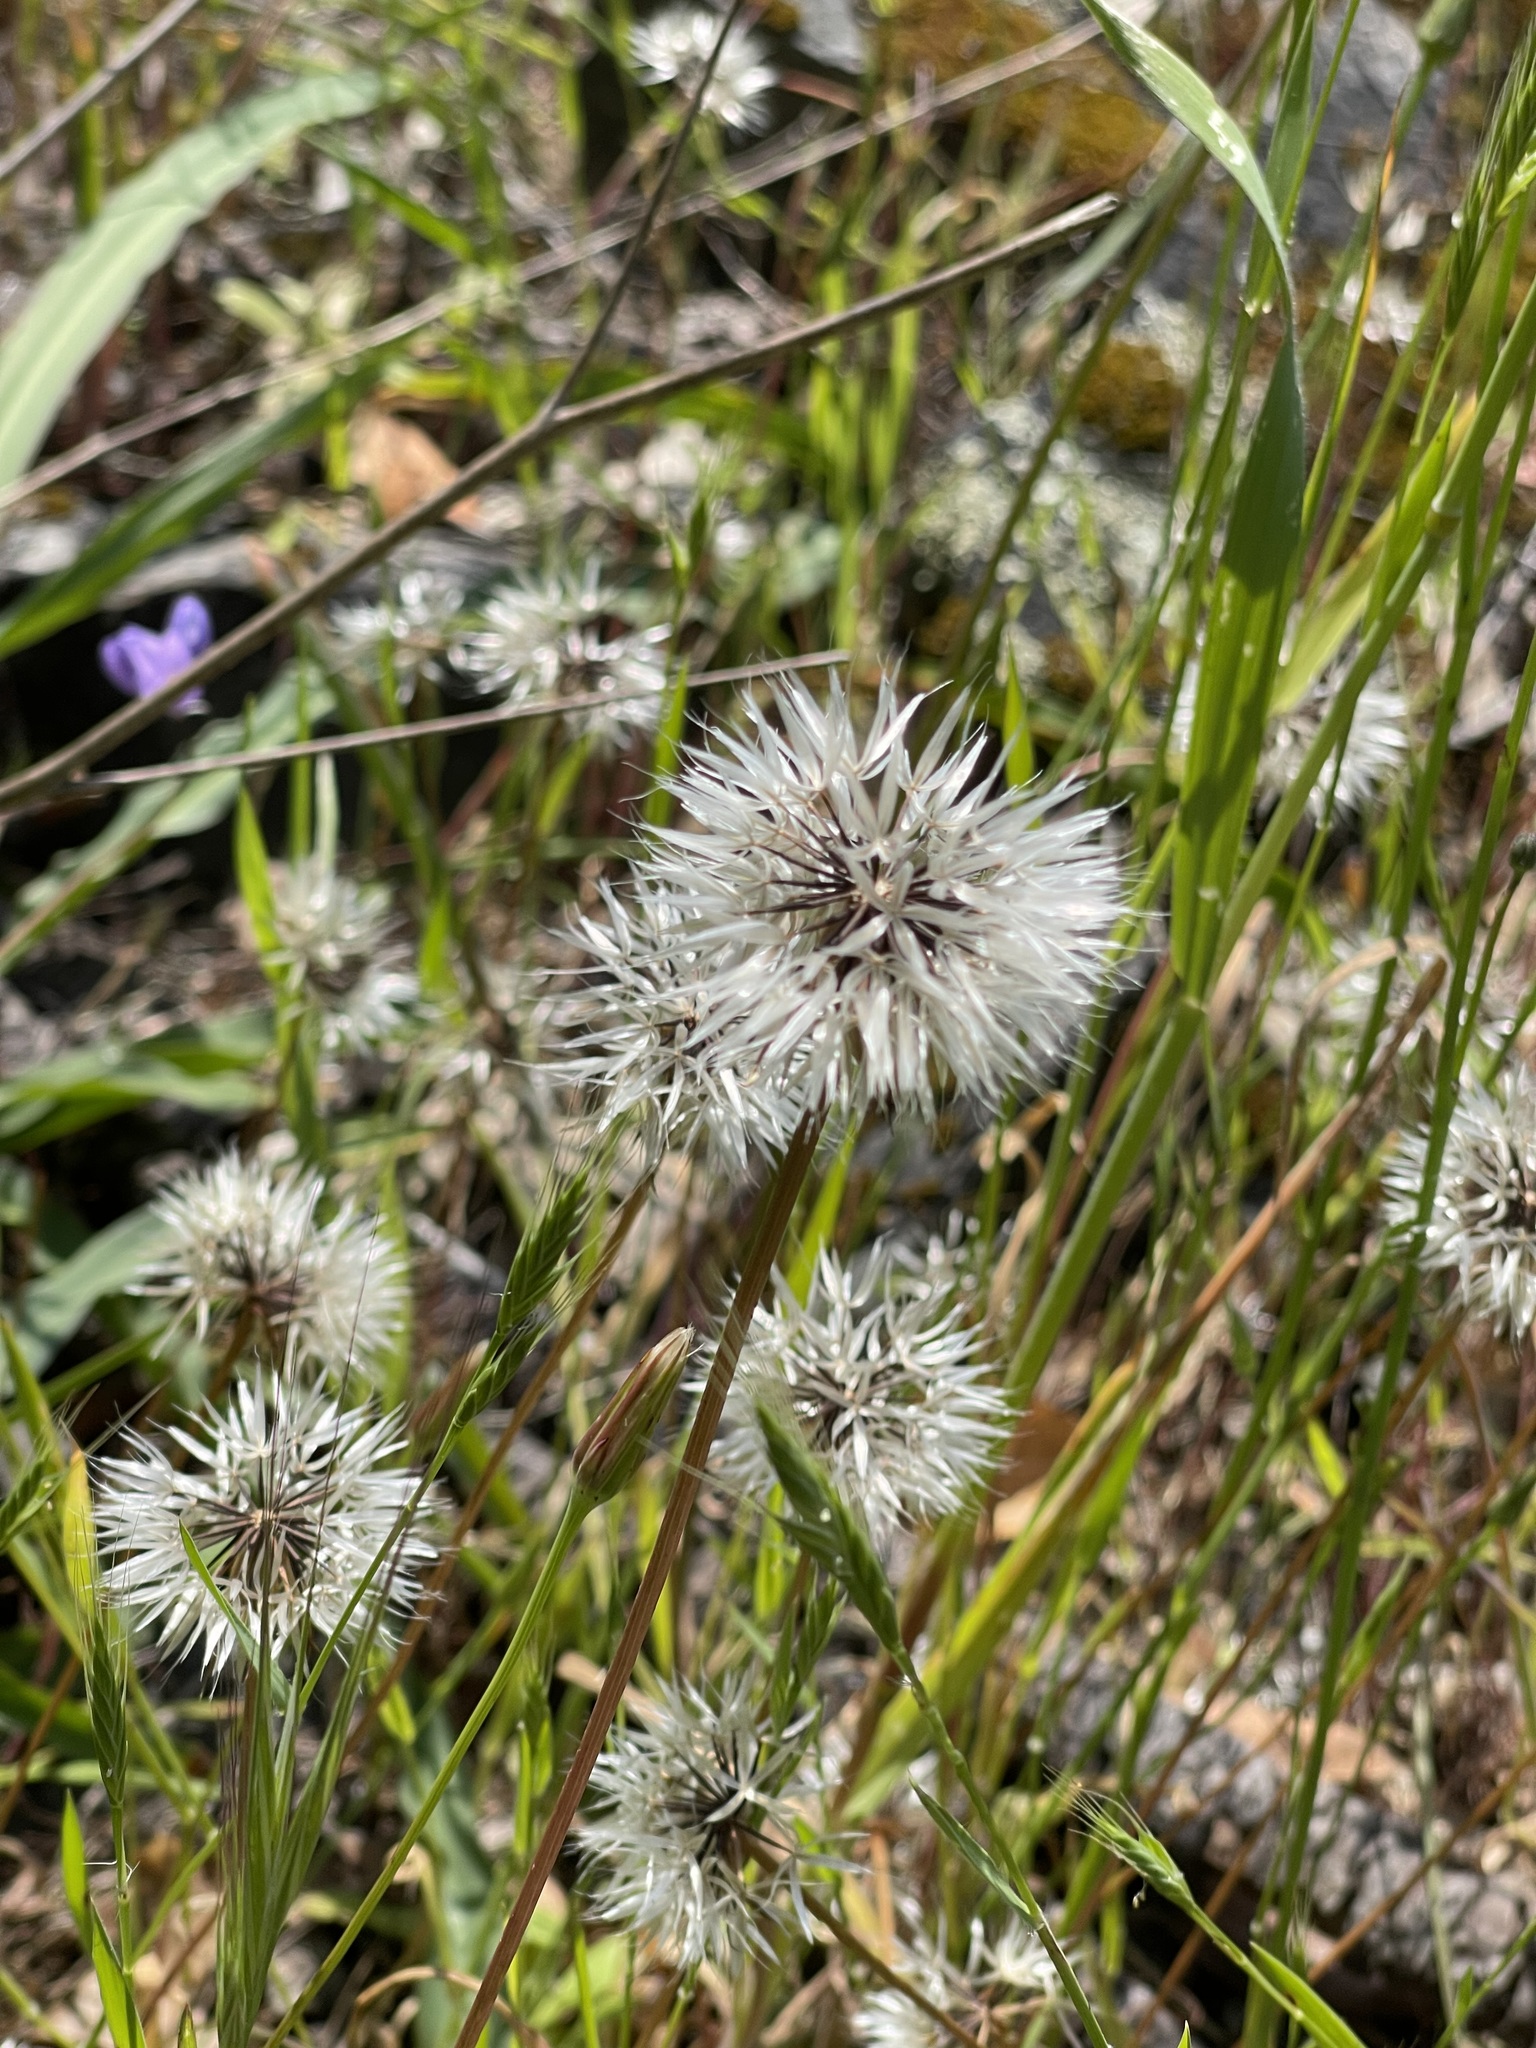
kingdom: Plantae
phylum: Tracheophyta
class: Magnoliopsida
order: Asterales
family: Asteraceae
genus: Microseris
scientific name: Microseris lindleyi
